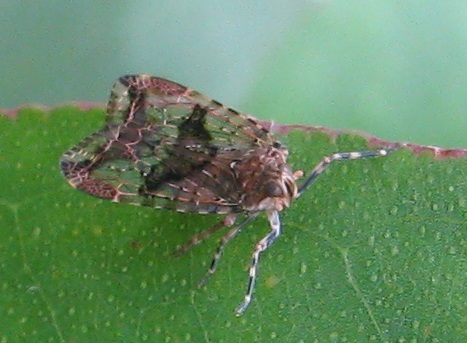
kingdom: Animalia
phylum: Arthropoda
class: Insecta
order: Hemiptera
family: Achilidae
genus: Dipsiathus
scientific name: Dipsiathus obscurifrons
